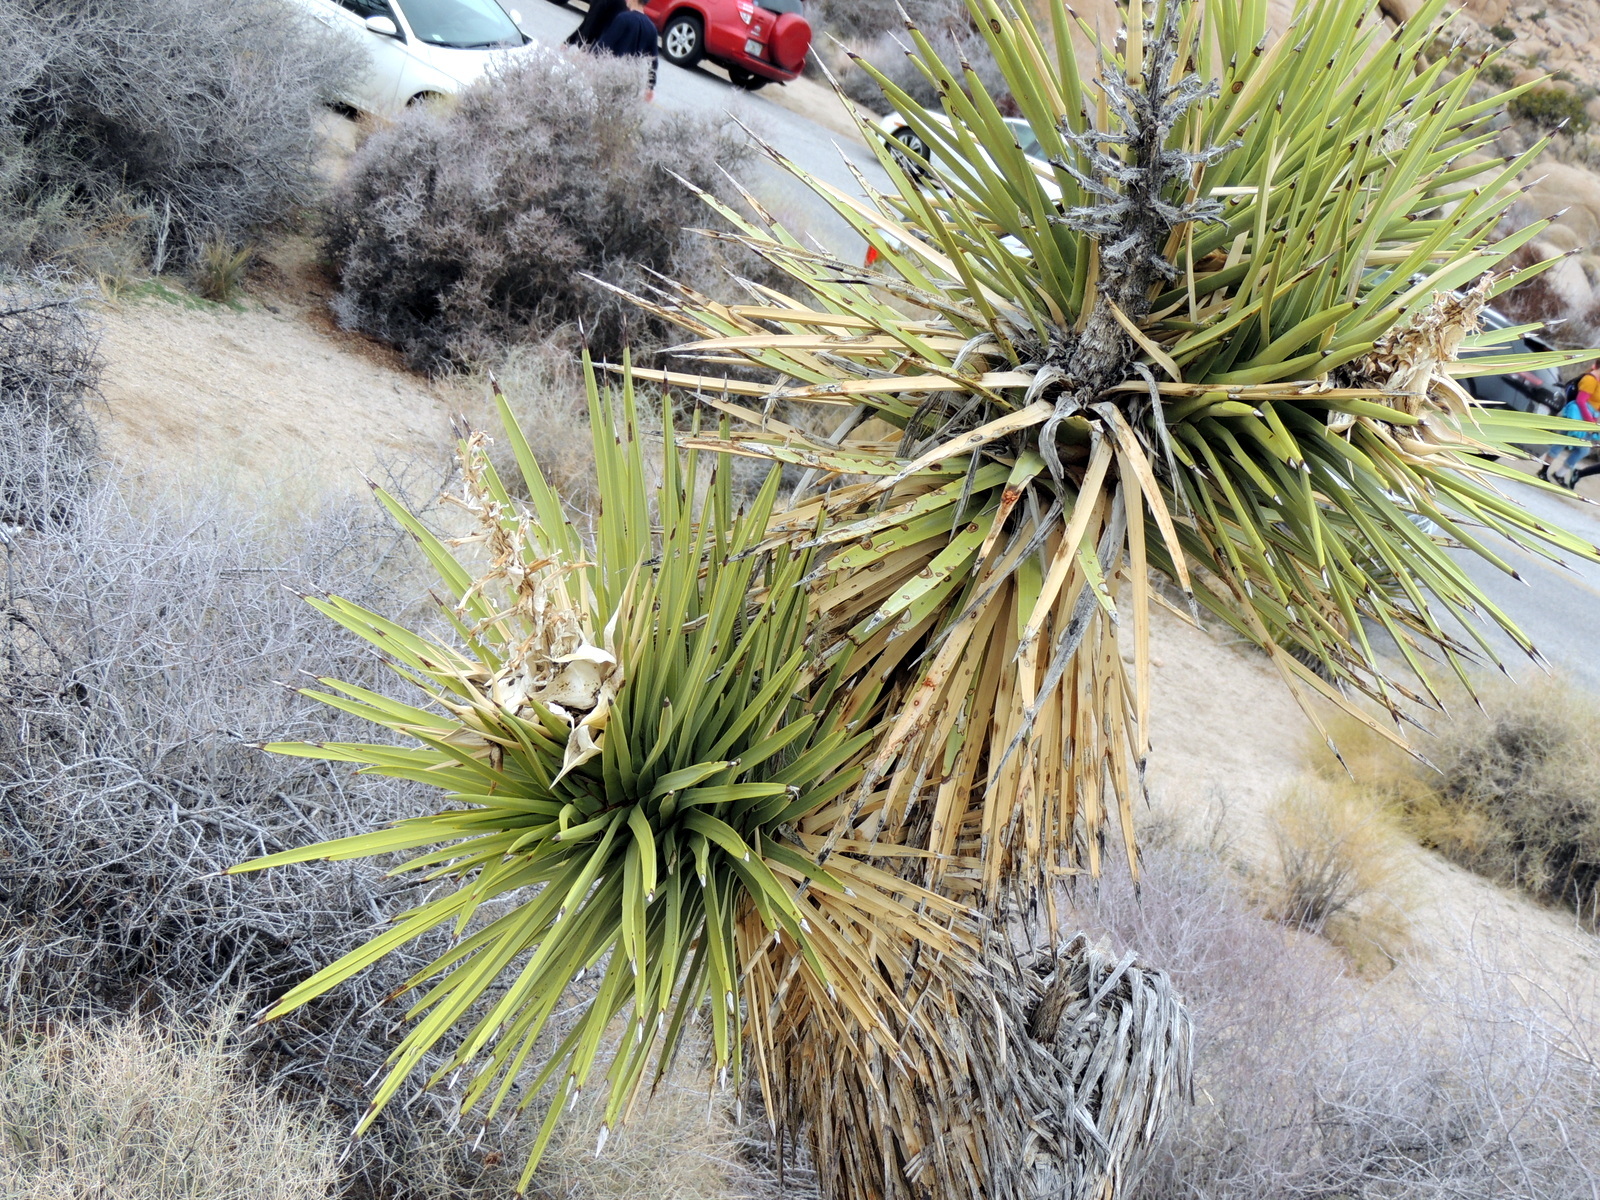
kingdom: Plantae
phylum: Tracheophyta
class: Liliopsida
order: Asparagales
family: Asparagaceae
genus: Yucca
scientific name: Yucca brevifolia
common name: Joshua tree
